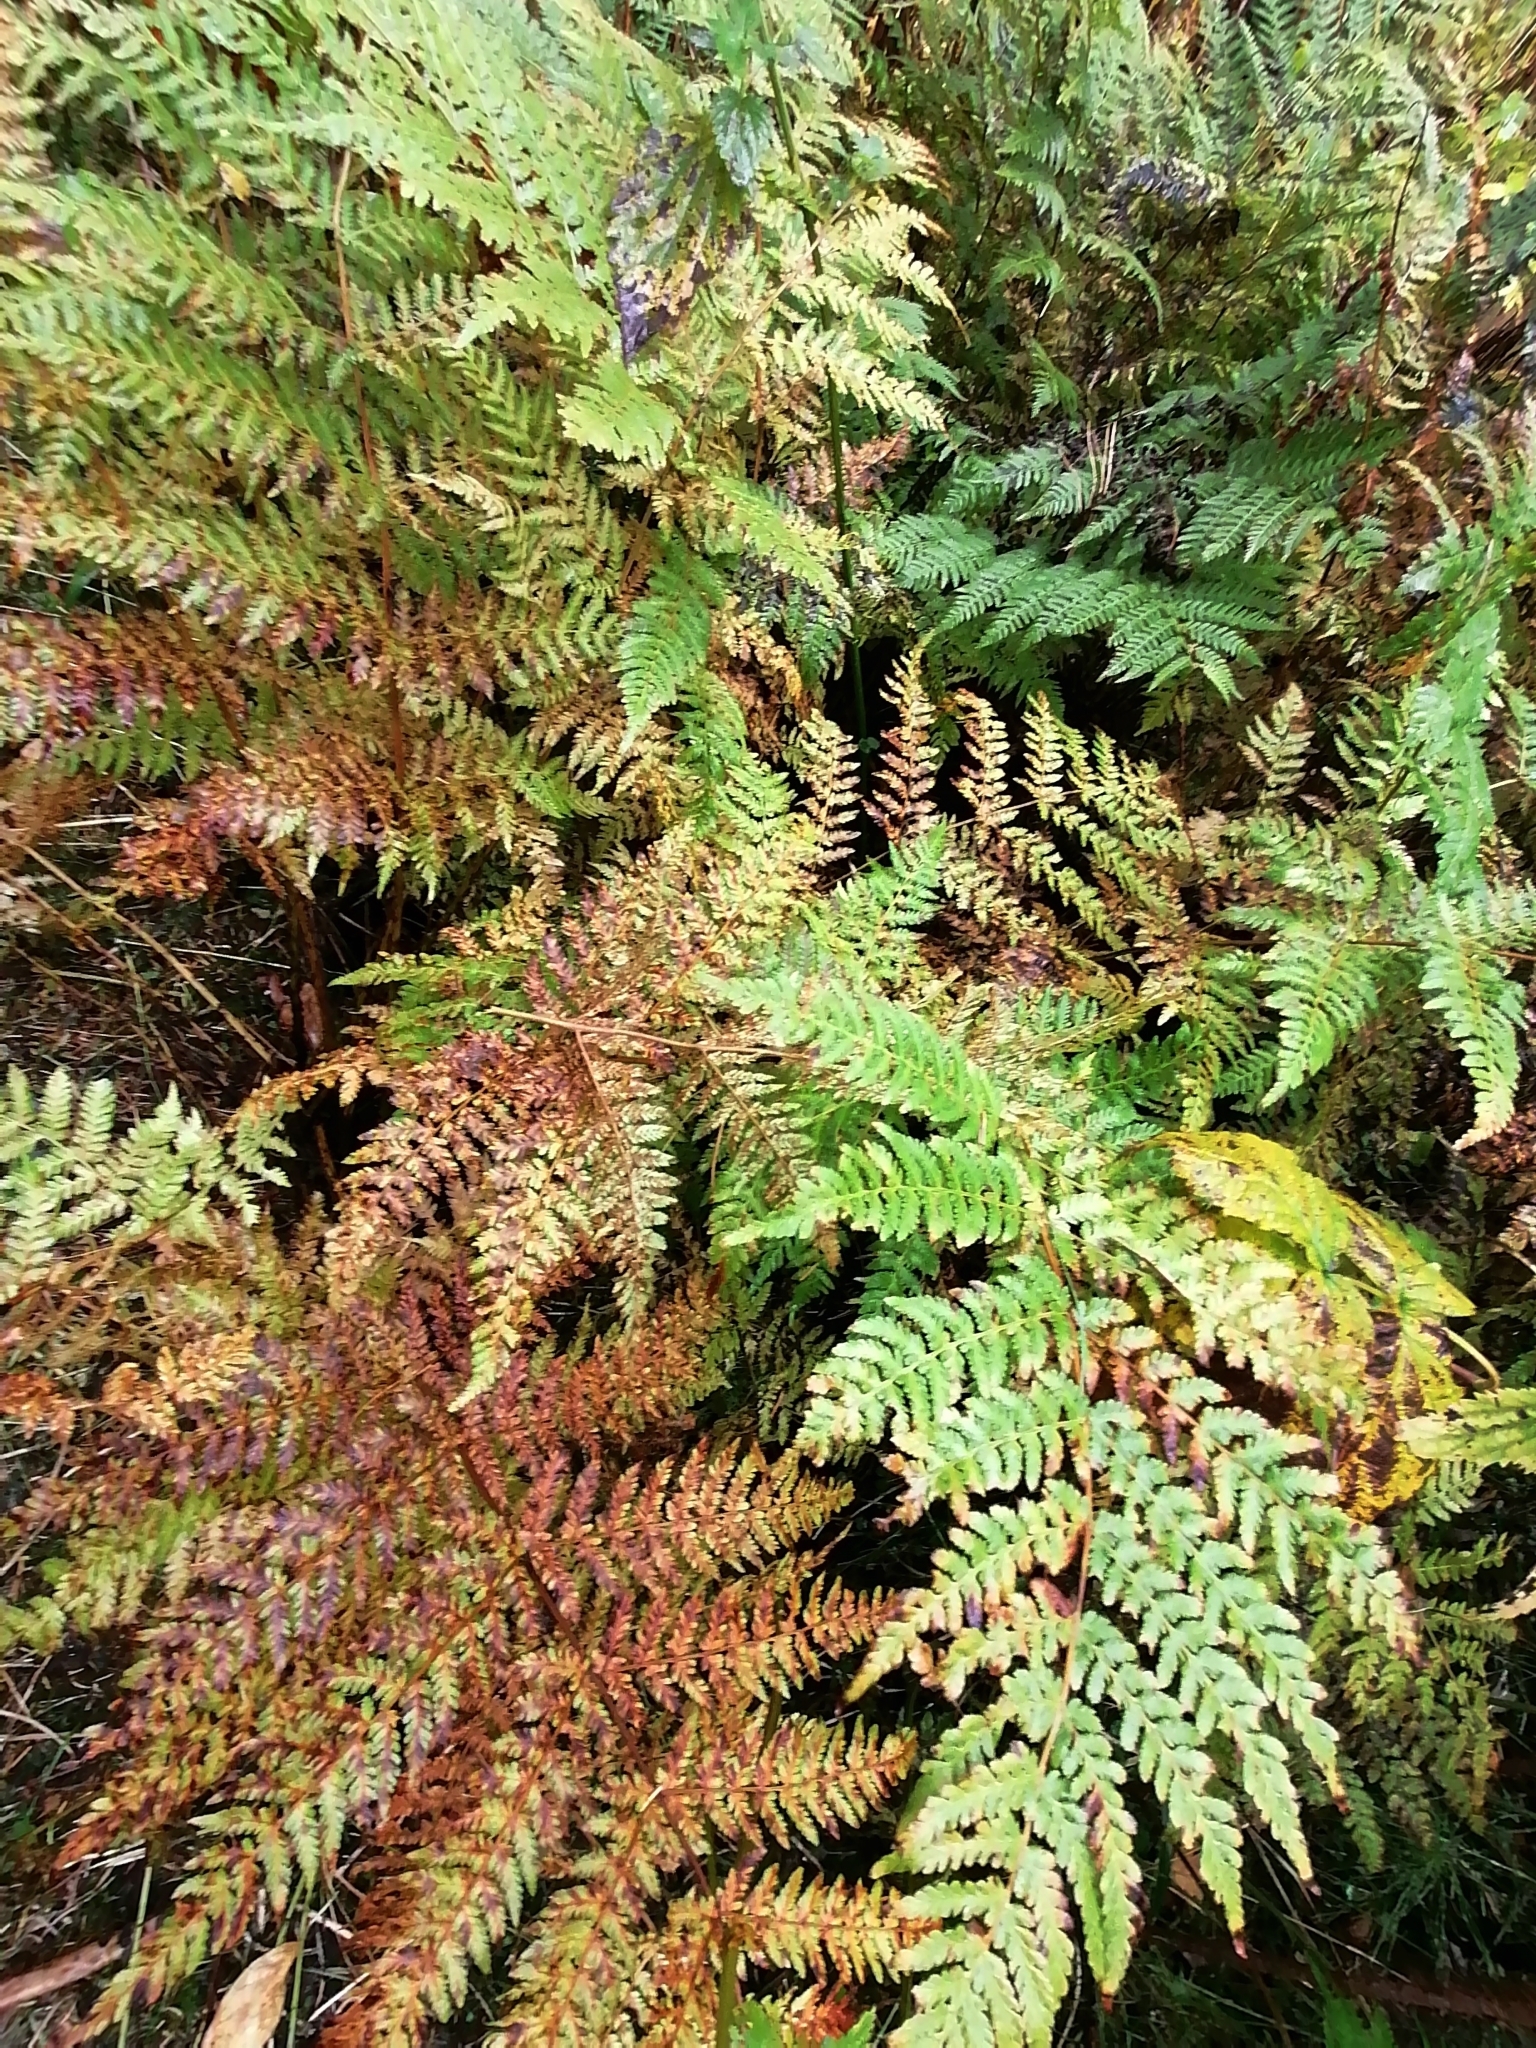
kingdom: Plantae
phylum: Tracheophyta
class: Polypodiopsida
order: Polypodiales
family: Dryopteridaceae
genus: Dryopteris
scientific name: Dryopteris expansa
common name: Northern buckler fern
